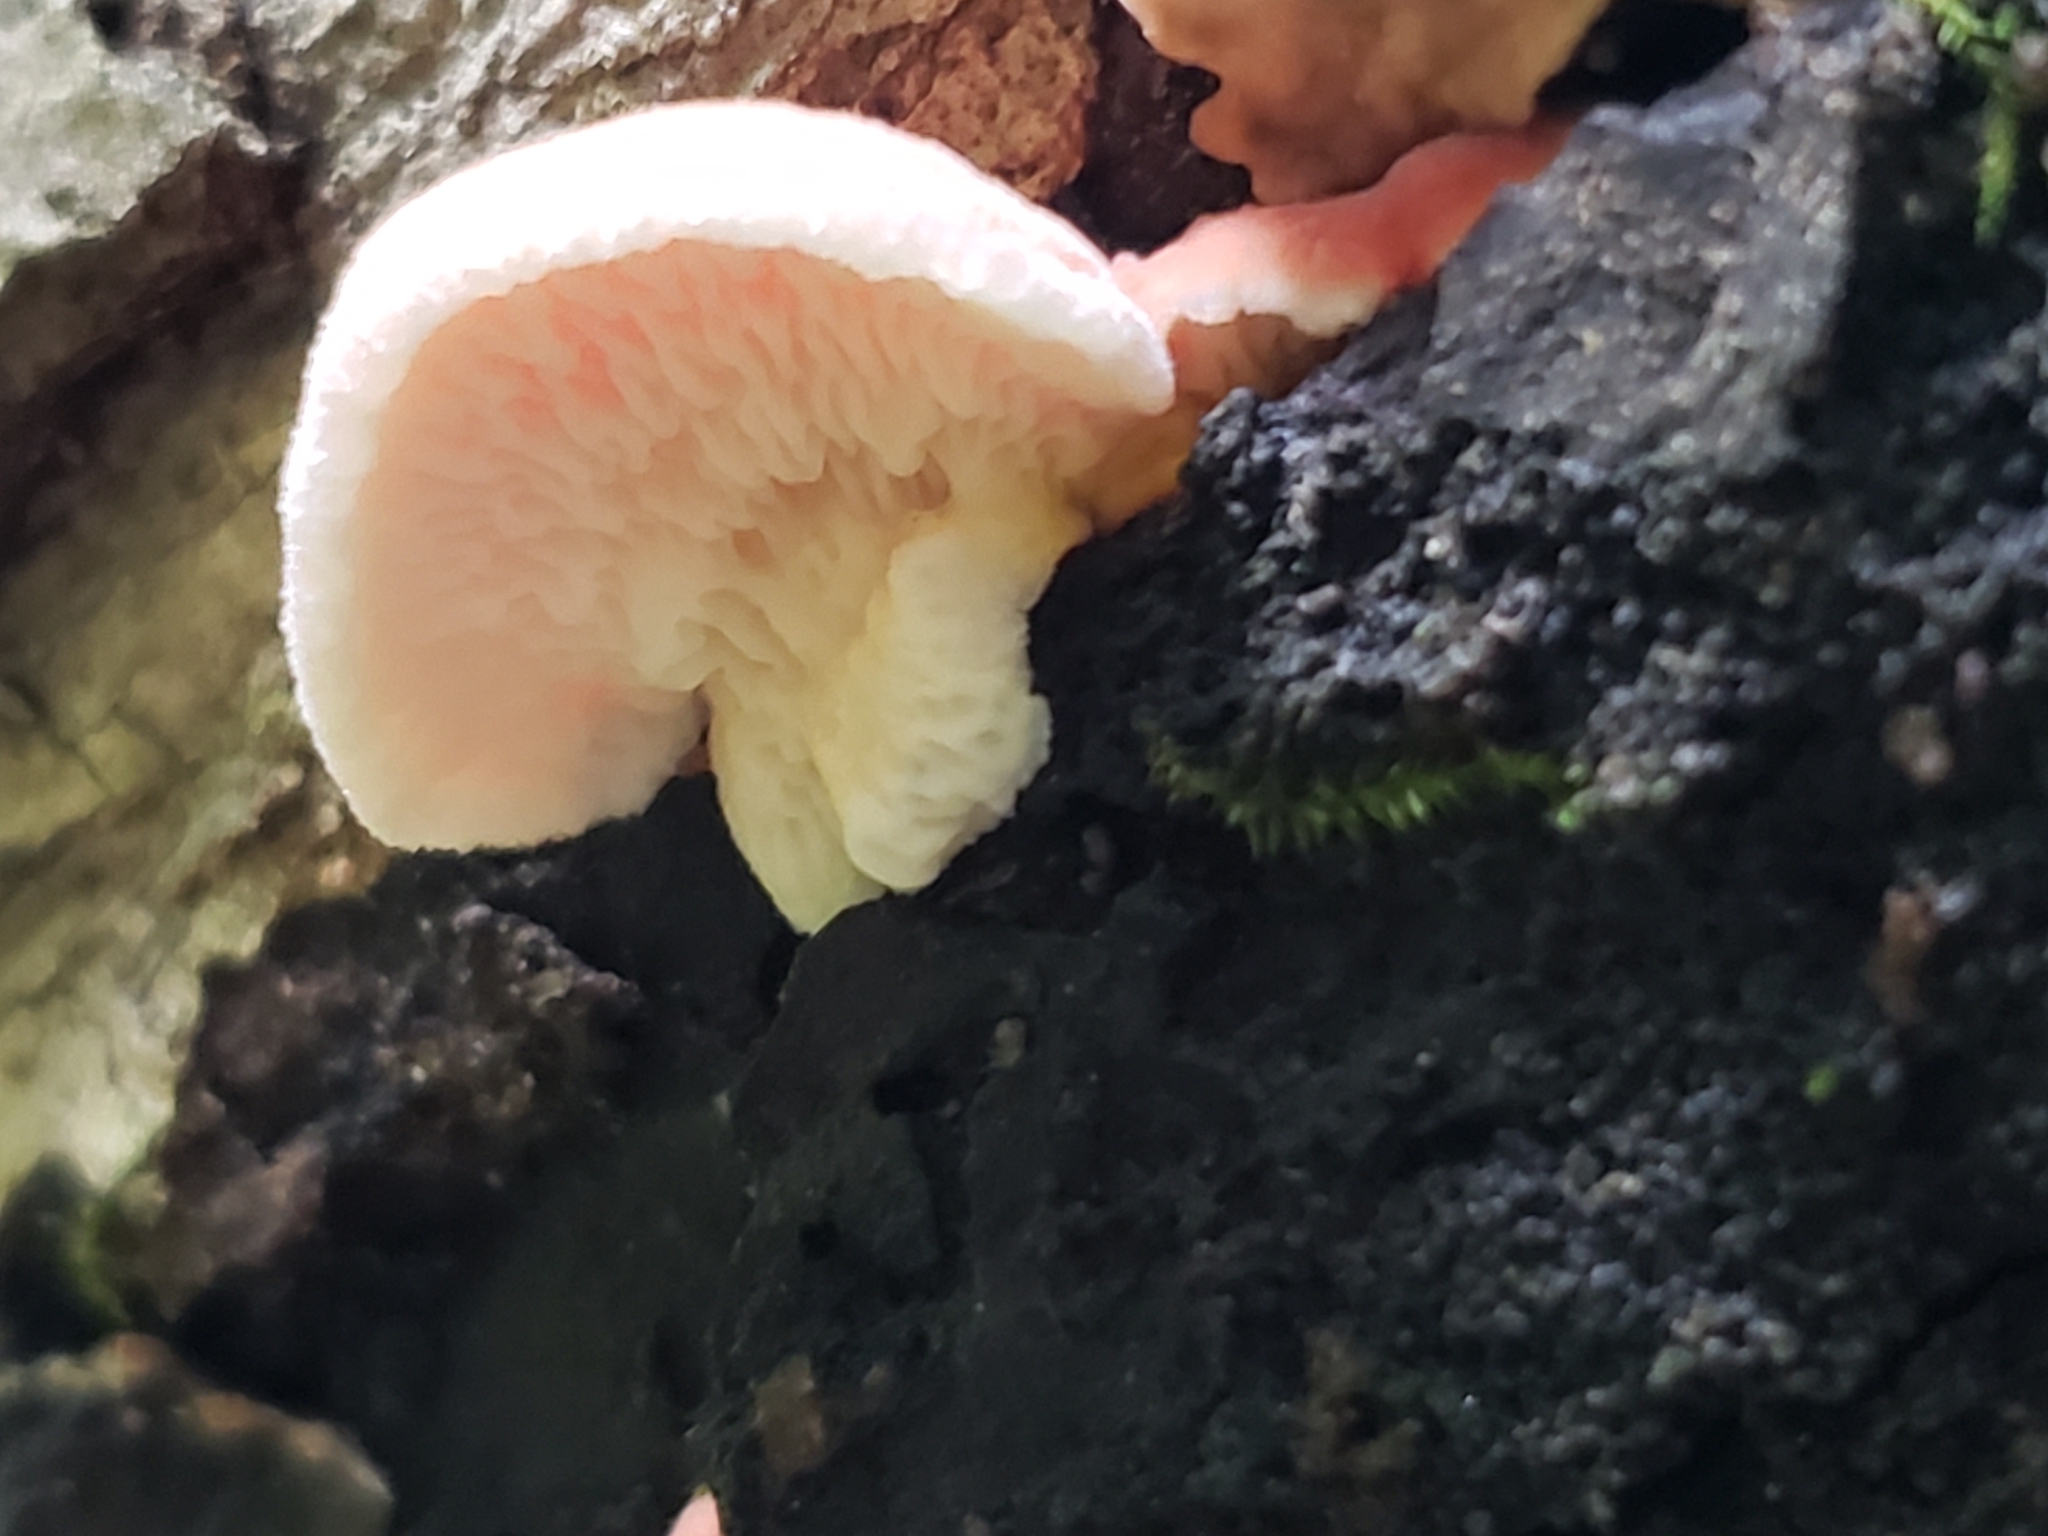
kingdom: Fungi
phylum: Basidiomycota
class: Agaricomycetes
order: Polyporales
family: Irpicaceae
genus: Byssomerulius
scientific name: Byssomerulius incarnatus
